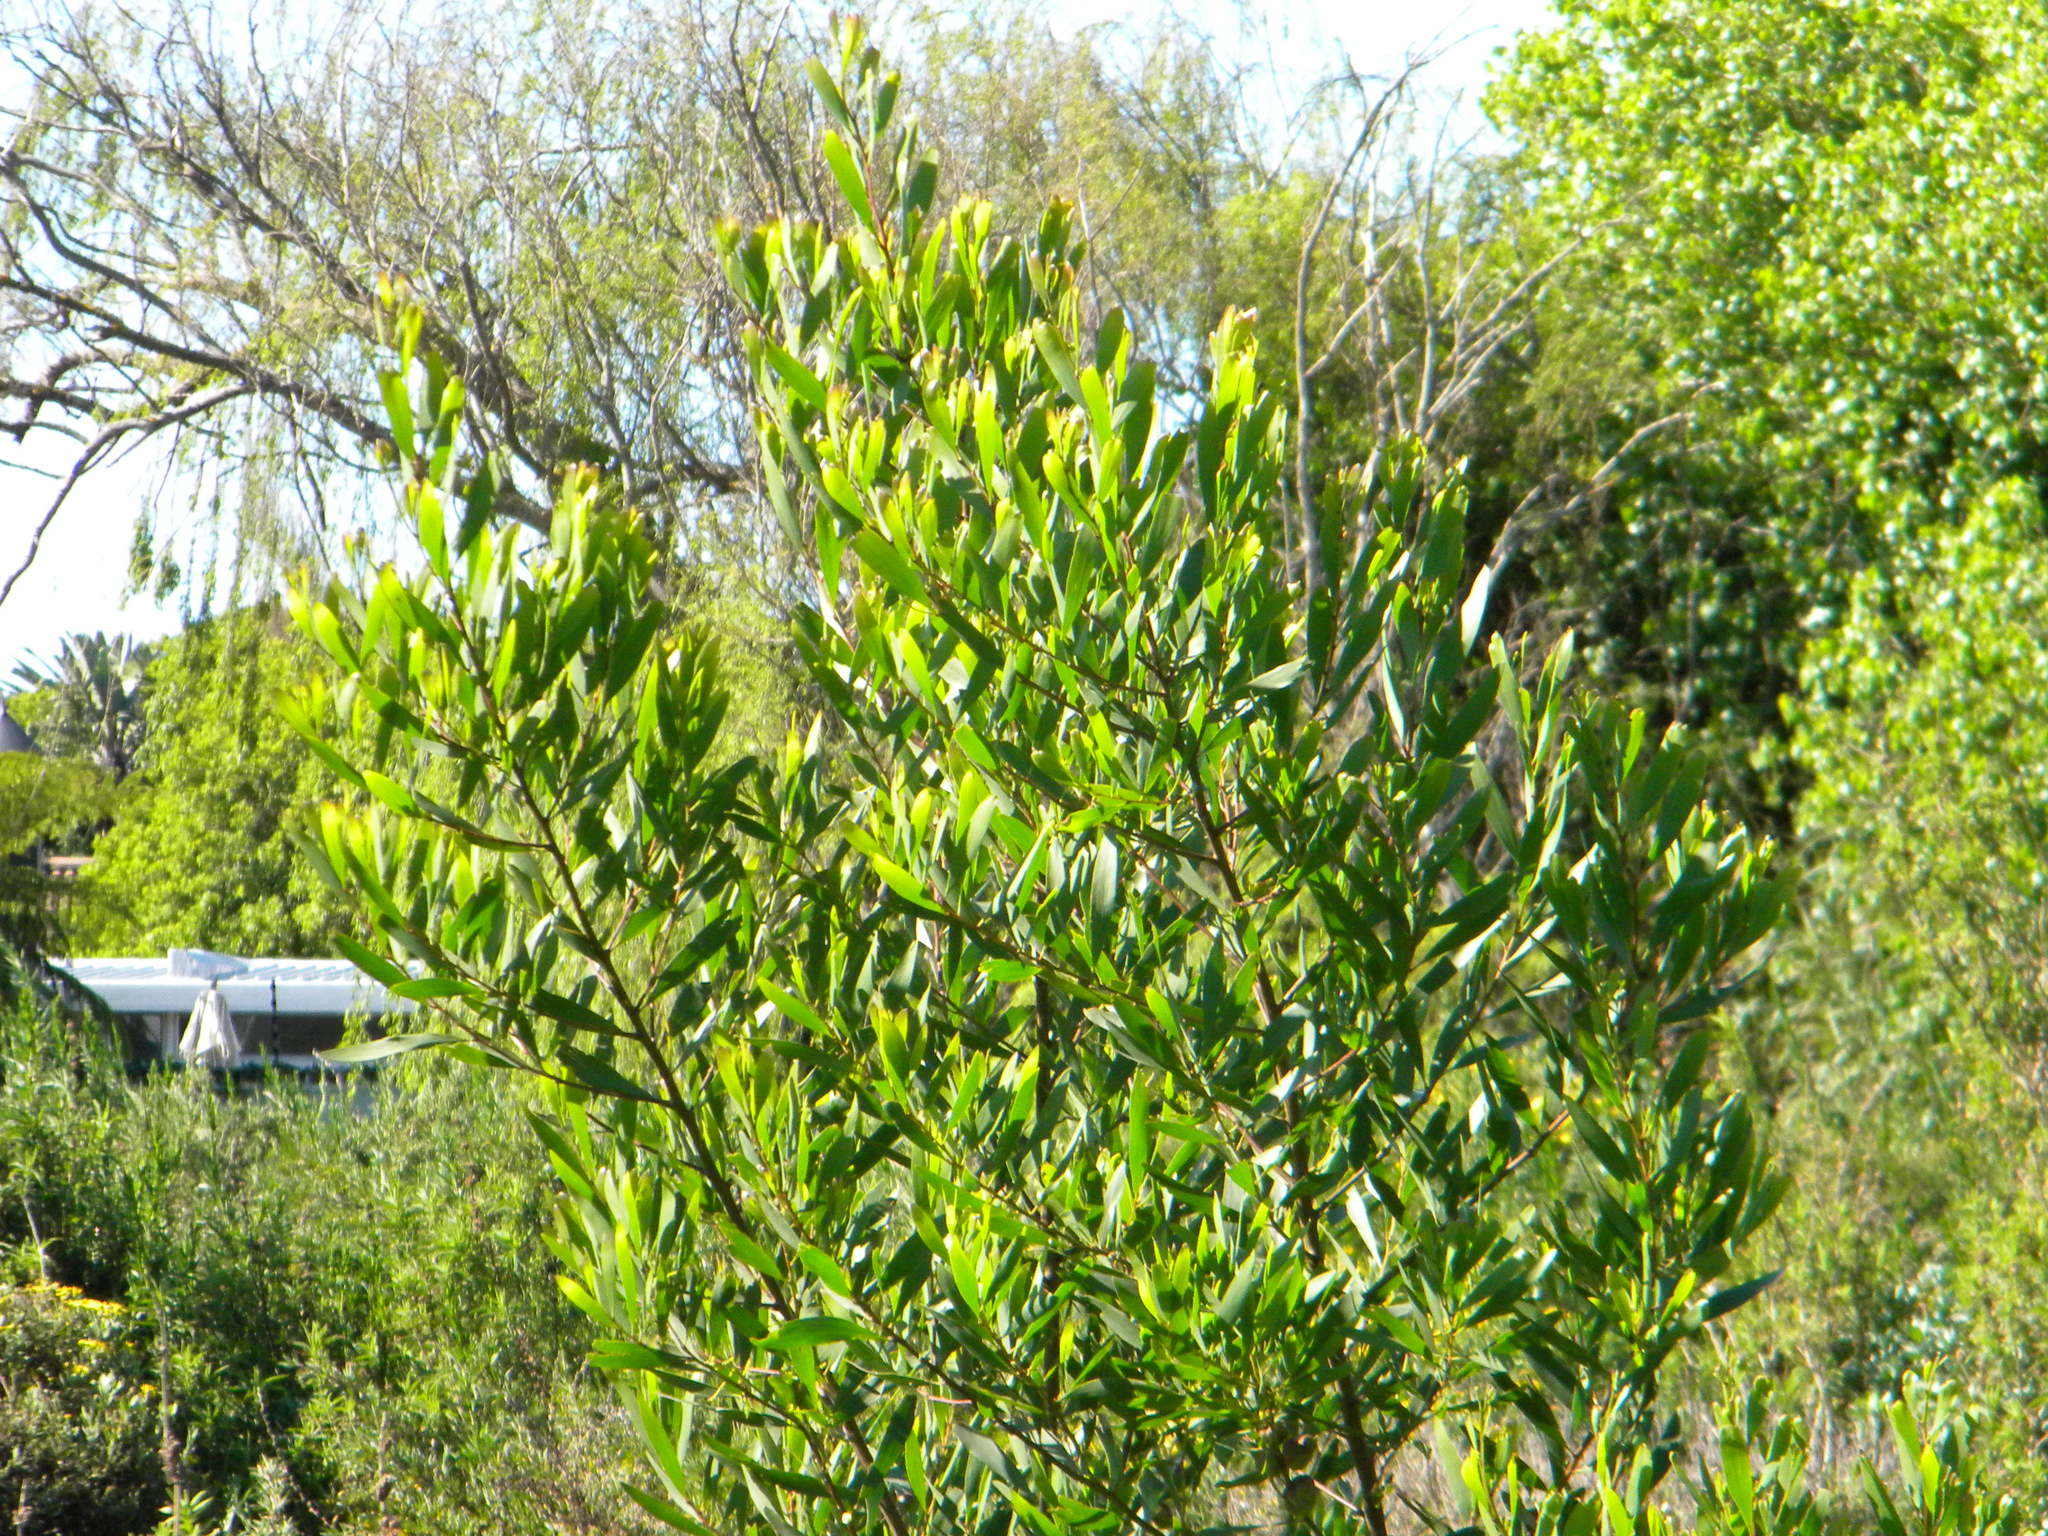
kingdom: Plantae
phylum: Tracheophyta
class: Magnoliopsida
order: Fabales
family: Fabaceae
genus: Acacia
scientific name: Acacia longifolia
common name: Sydney golden wattle
